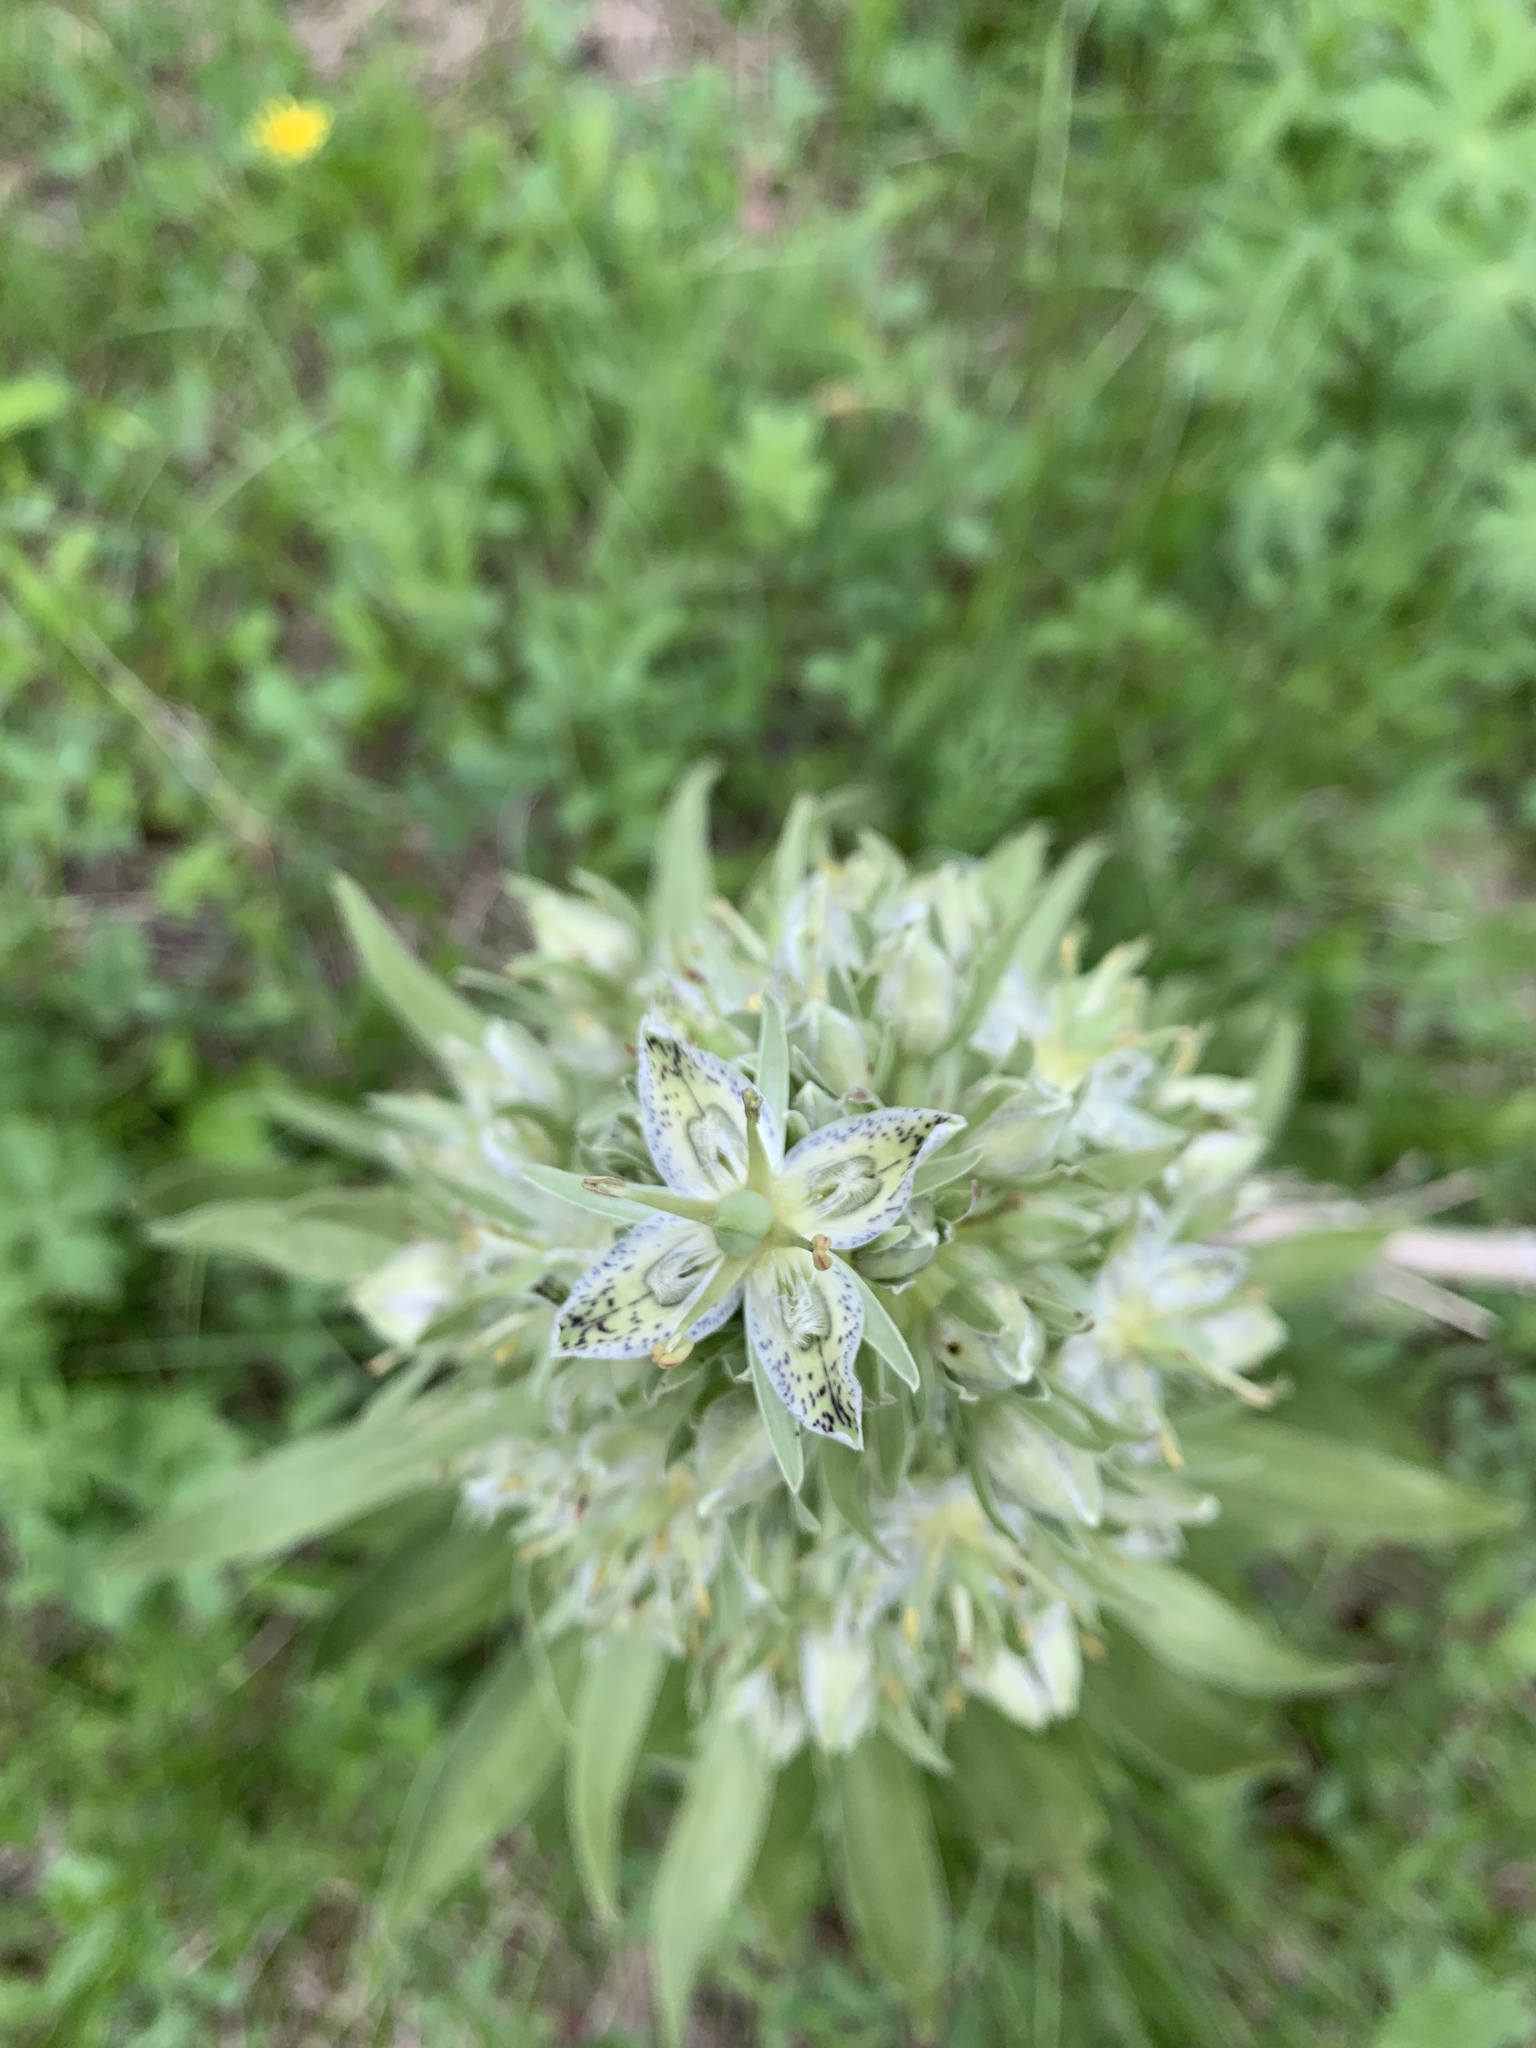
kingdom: Plantae
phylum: Tracheophyta
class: Magnoliopsida
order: Gentianales
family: Gentianaceae
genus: Frasera
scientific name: Frasera speciosa
